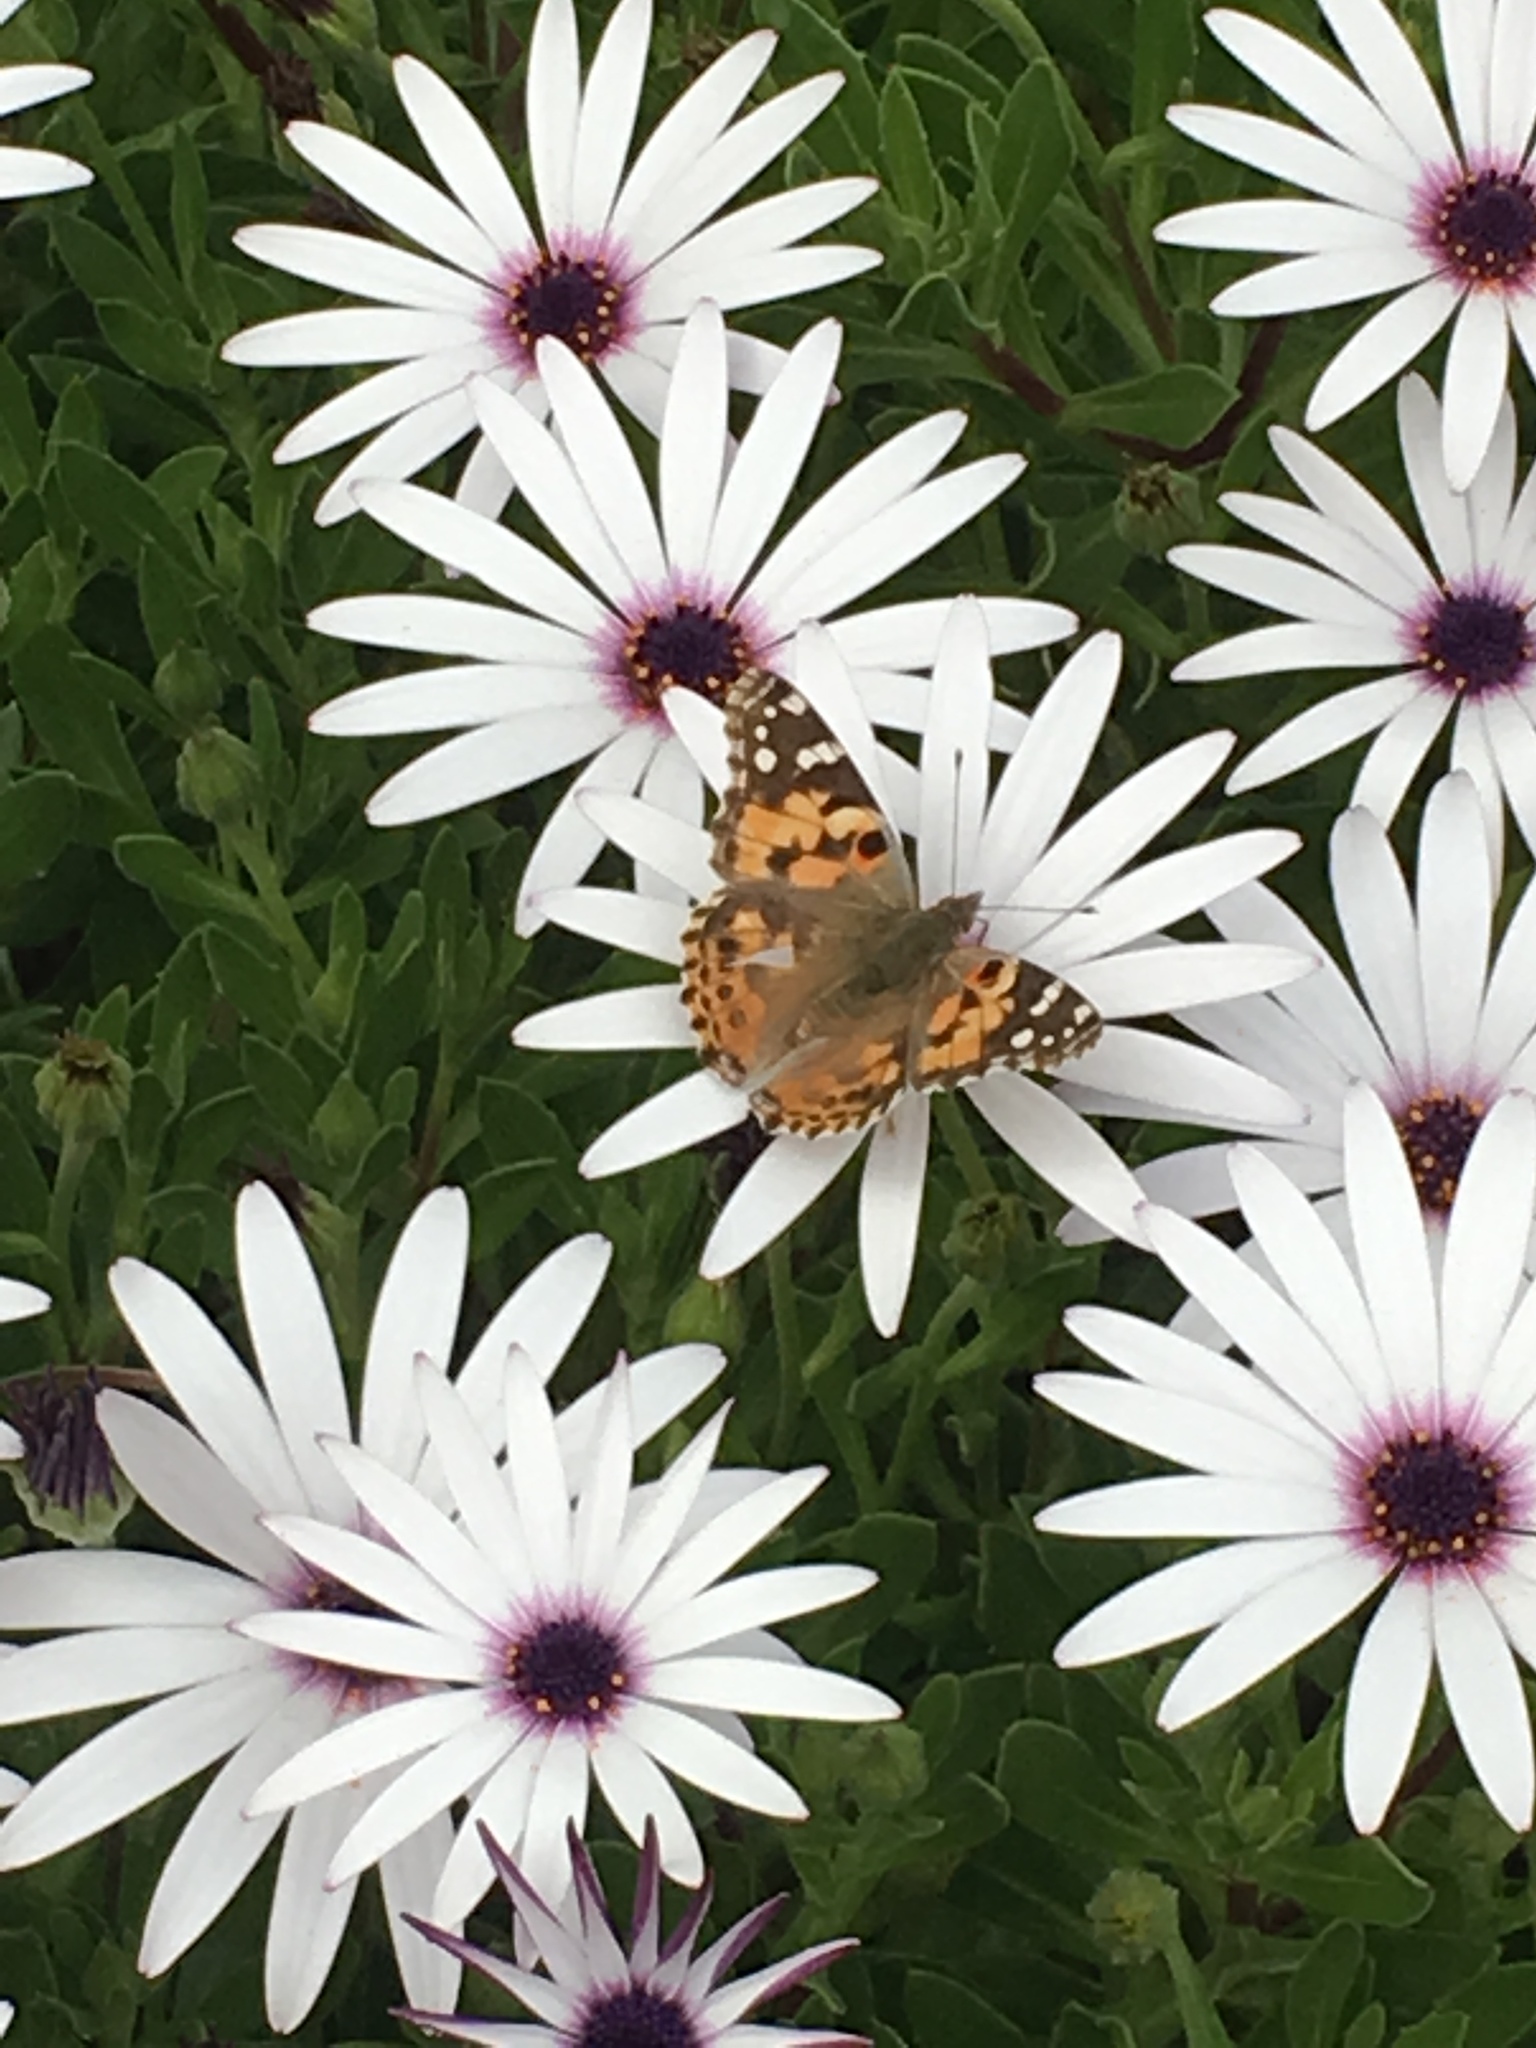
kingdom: Animalia
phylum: Arthropoda
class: Insecta
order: Lepidoptera
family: Nymphalidae
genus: Vanessa
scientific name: Vanessa cardui
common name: Painted lady
